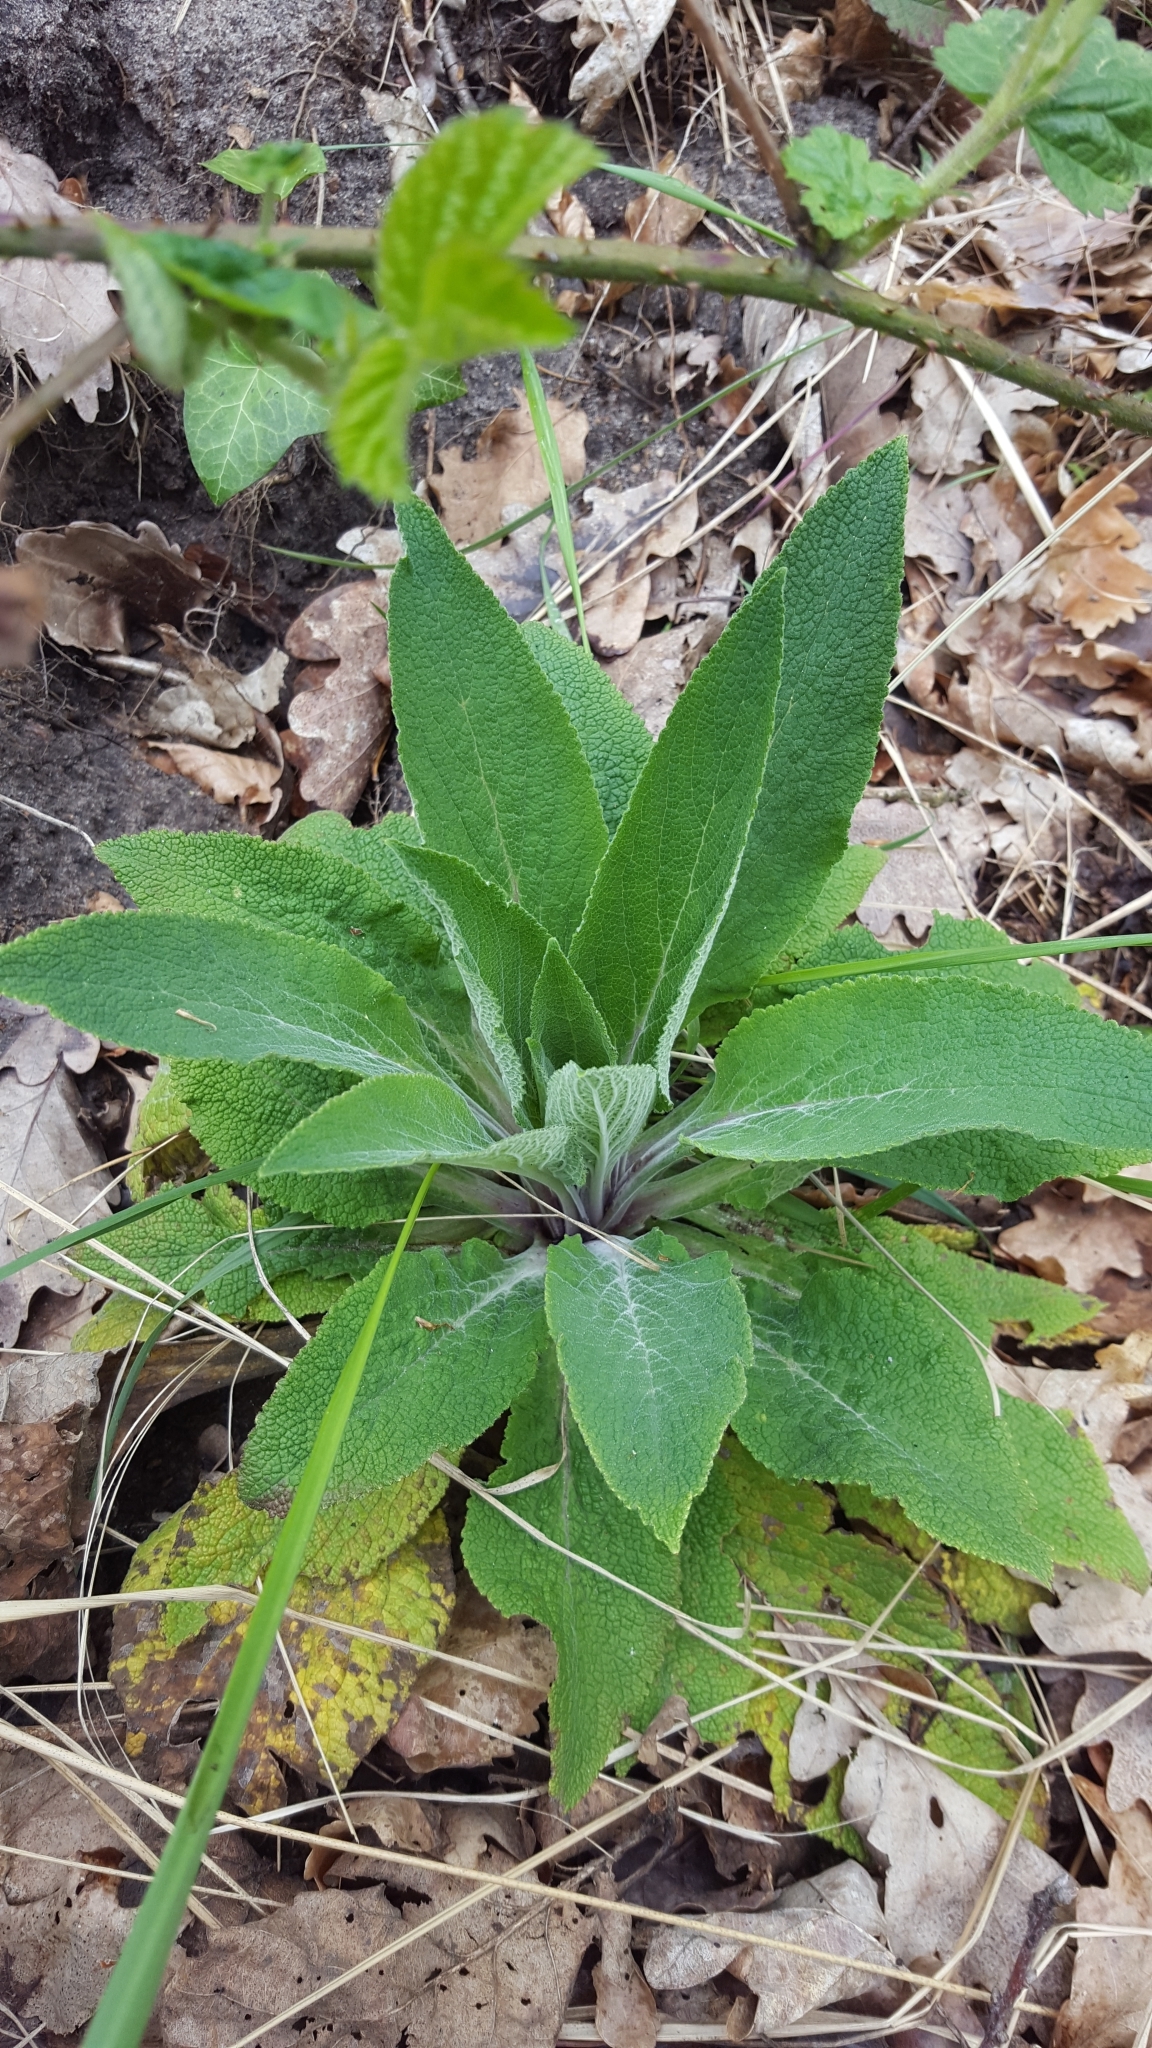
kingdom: Plantae
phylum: Tracheophyta
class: Magnoliopsida
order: Lamiales
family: Plantaginaceae
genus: Digitalis
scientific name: Digitalis purpurea
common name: Foxglove
